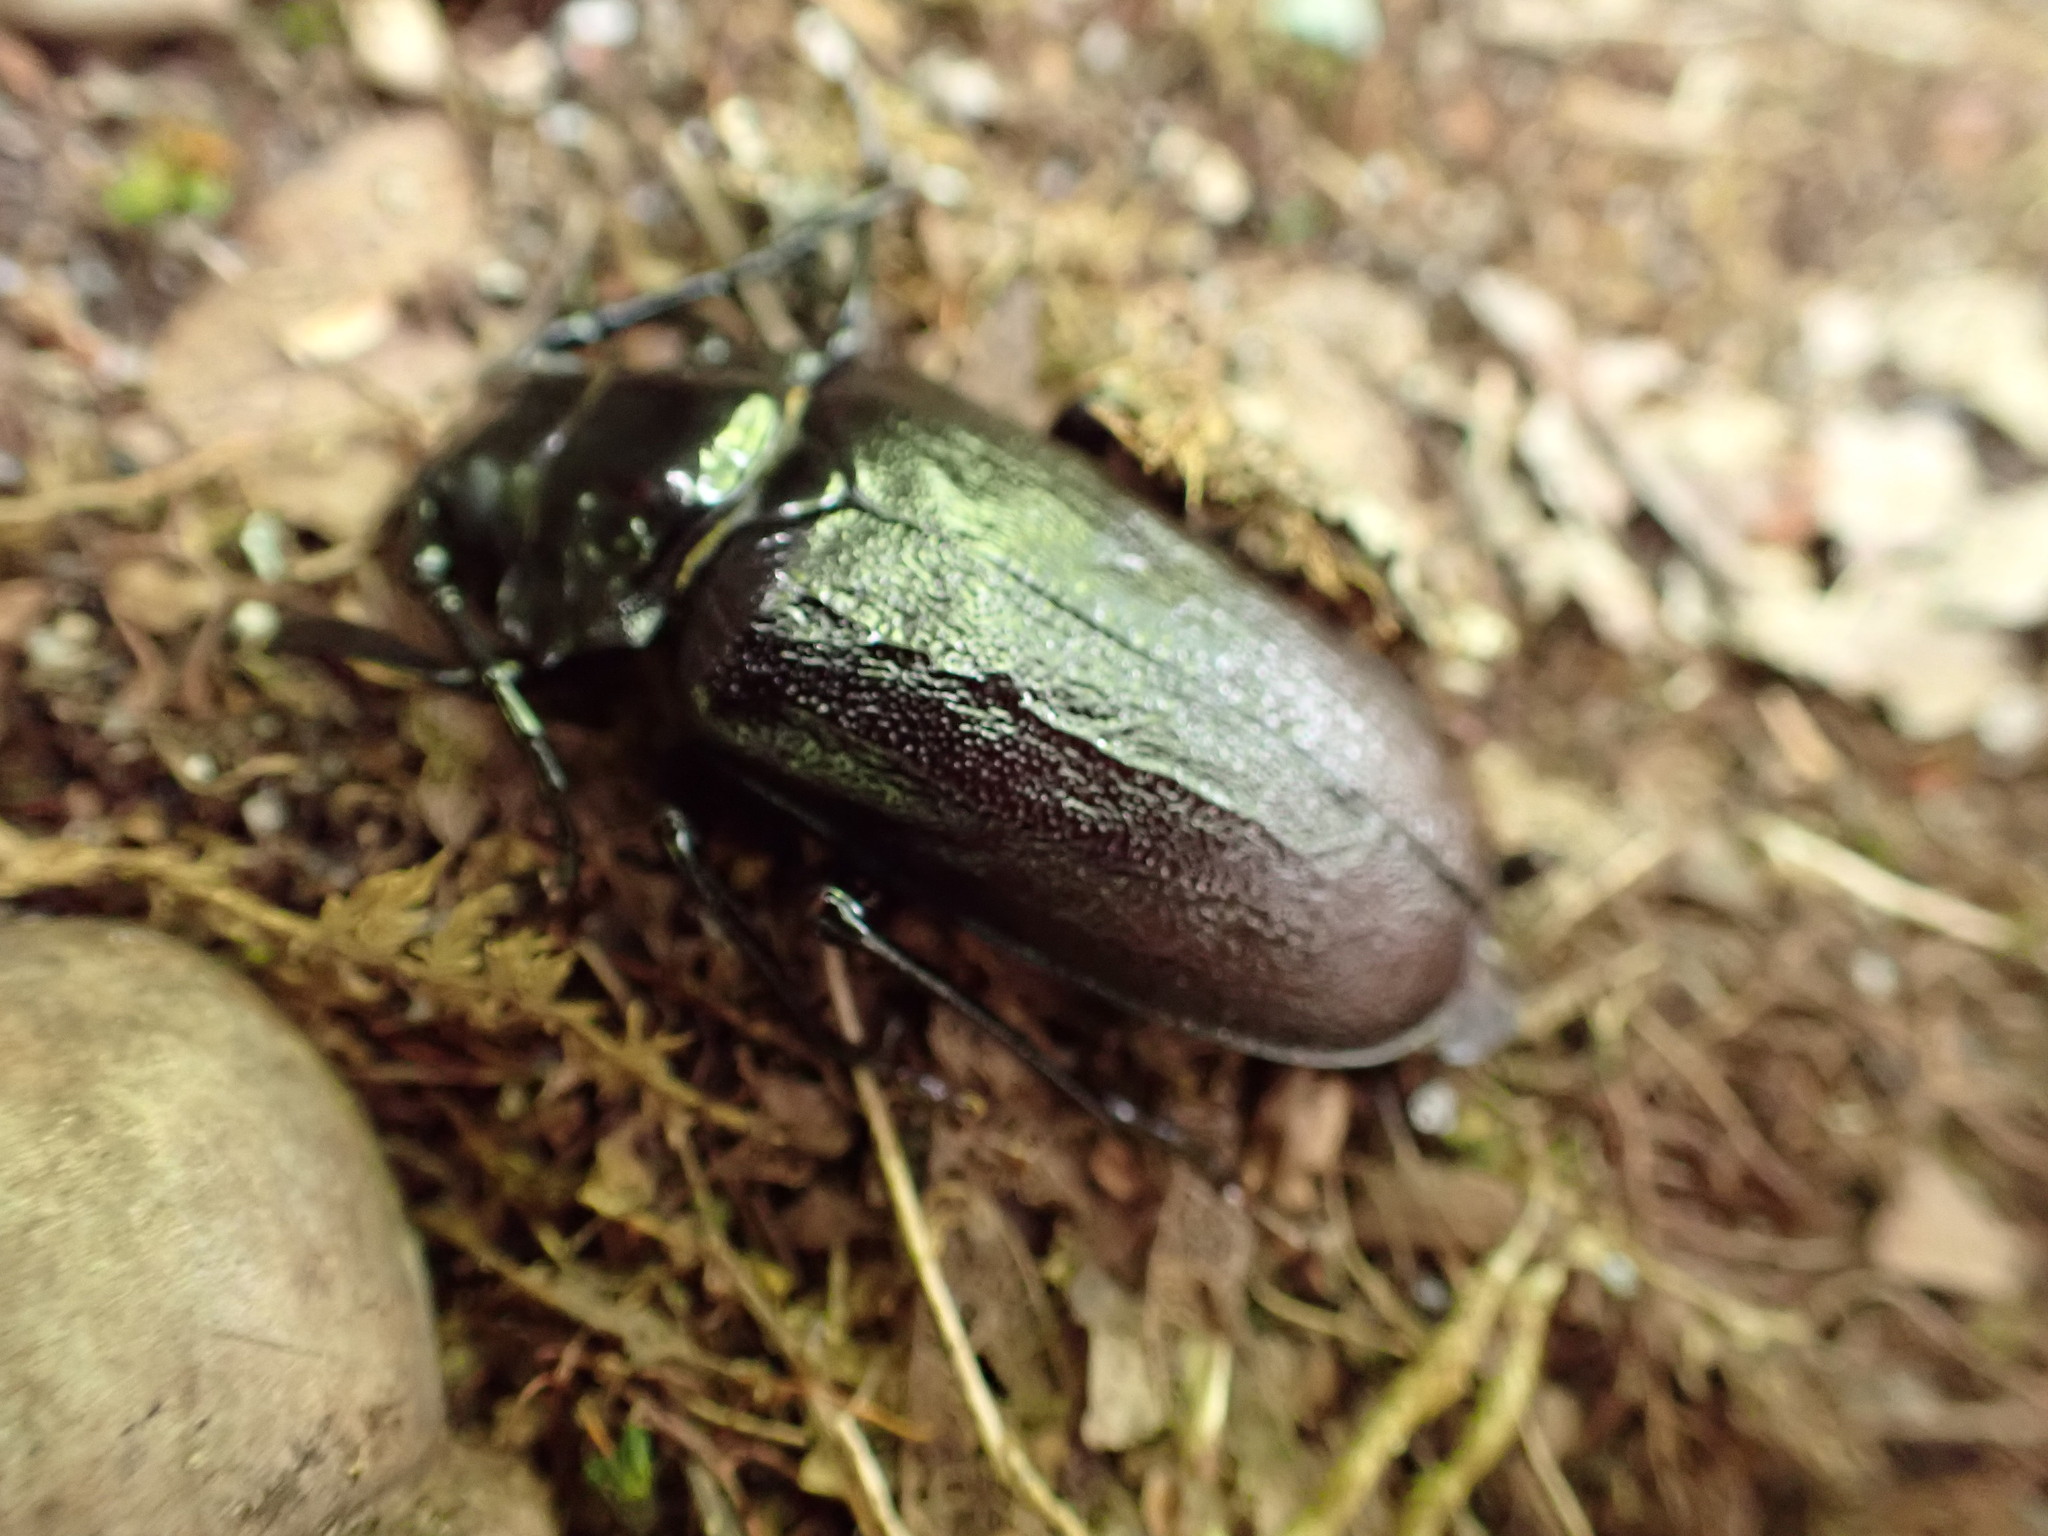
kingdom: Animalia
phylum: Arthropoda
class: Insecta
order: Coleoptera
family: Cerambycidae
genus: Prionus
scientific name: Prionus laticollis
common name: Broad necked prionus
